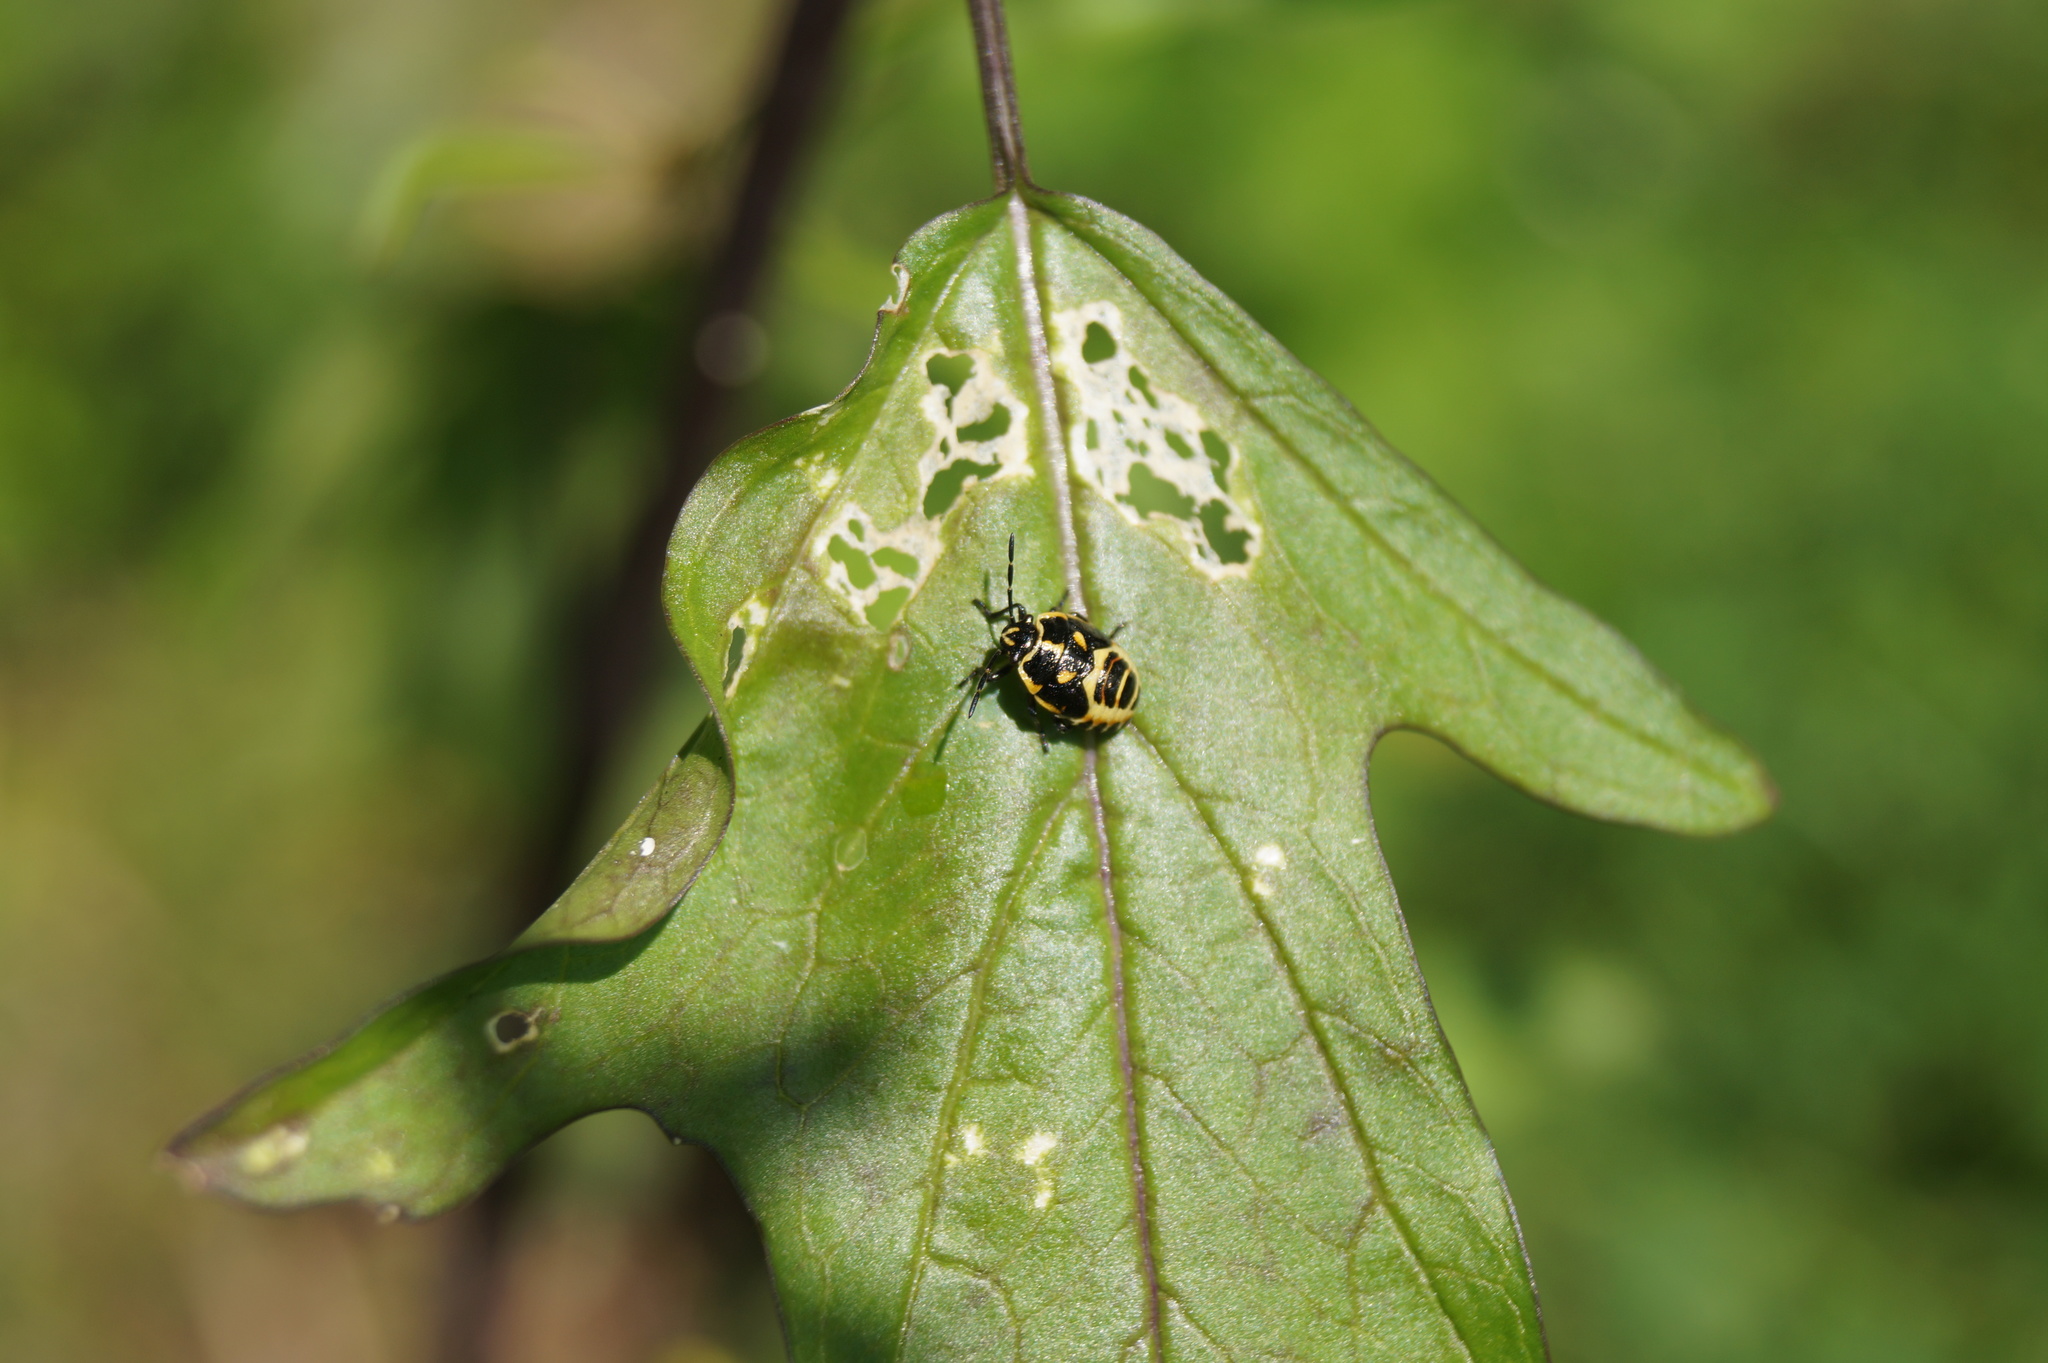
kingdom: Animalia
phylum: Arthropoda
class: Insecta
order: Hemiptera
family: Pentatomidae
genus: Eurydema
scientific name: Eurydema oleracea
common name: Cabbage bug
